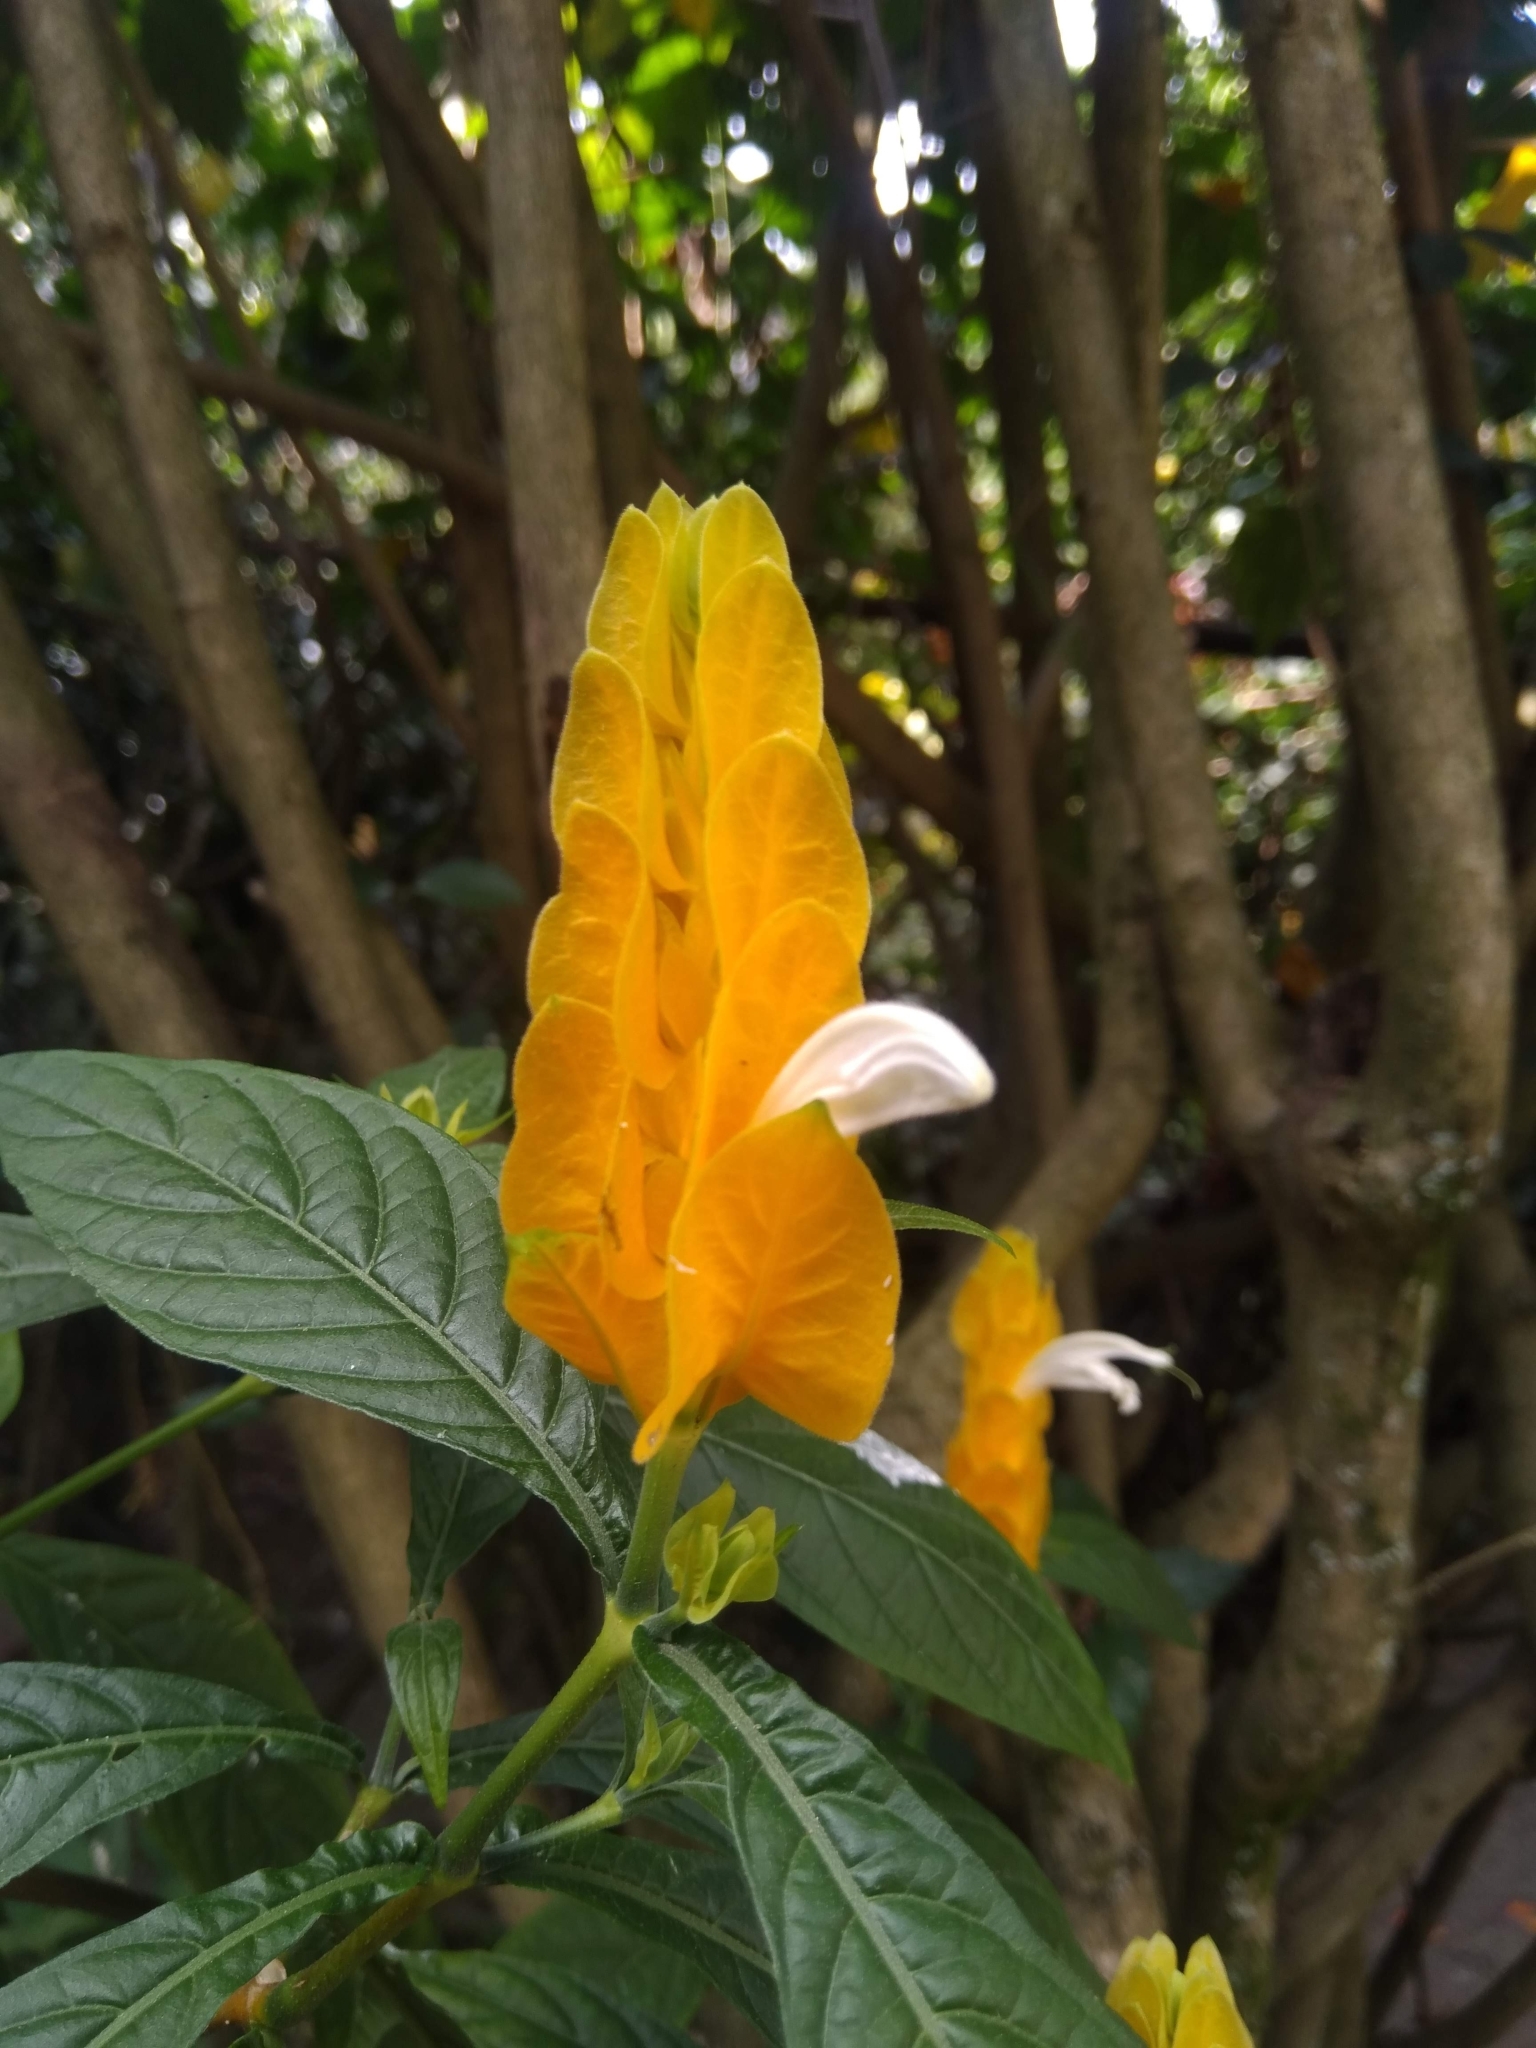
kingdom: Plantae
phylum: Tracheophyta
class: Magnoliopsida
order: Lamiales
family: Acanthaceae
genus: Pachystachys
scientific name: Pachystachys lutea
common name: Golden shrimp-plant
